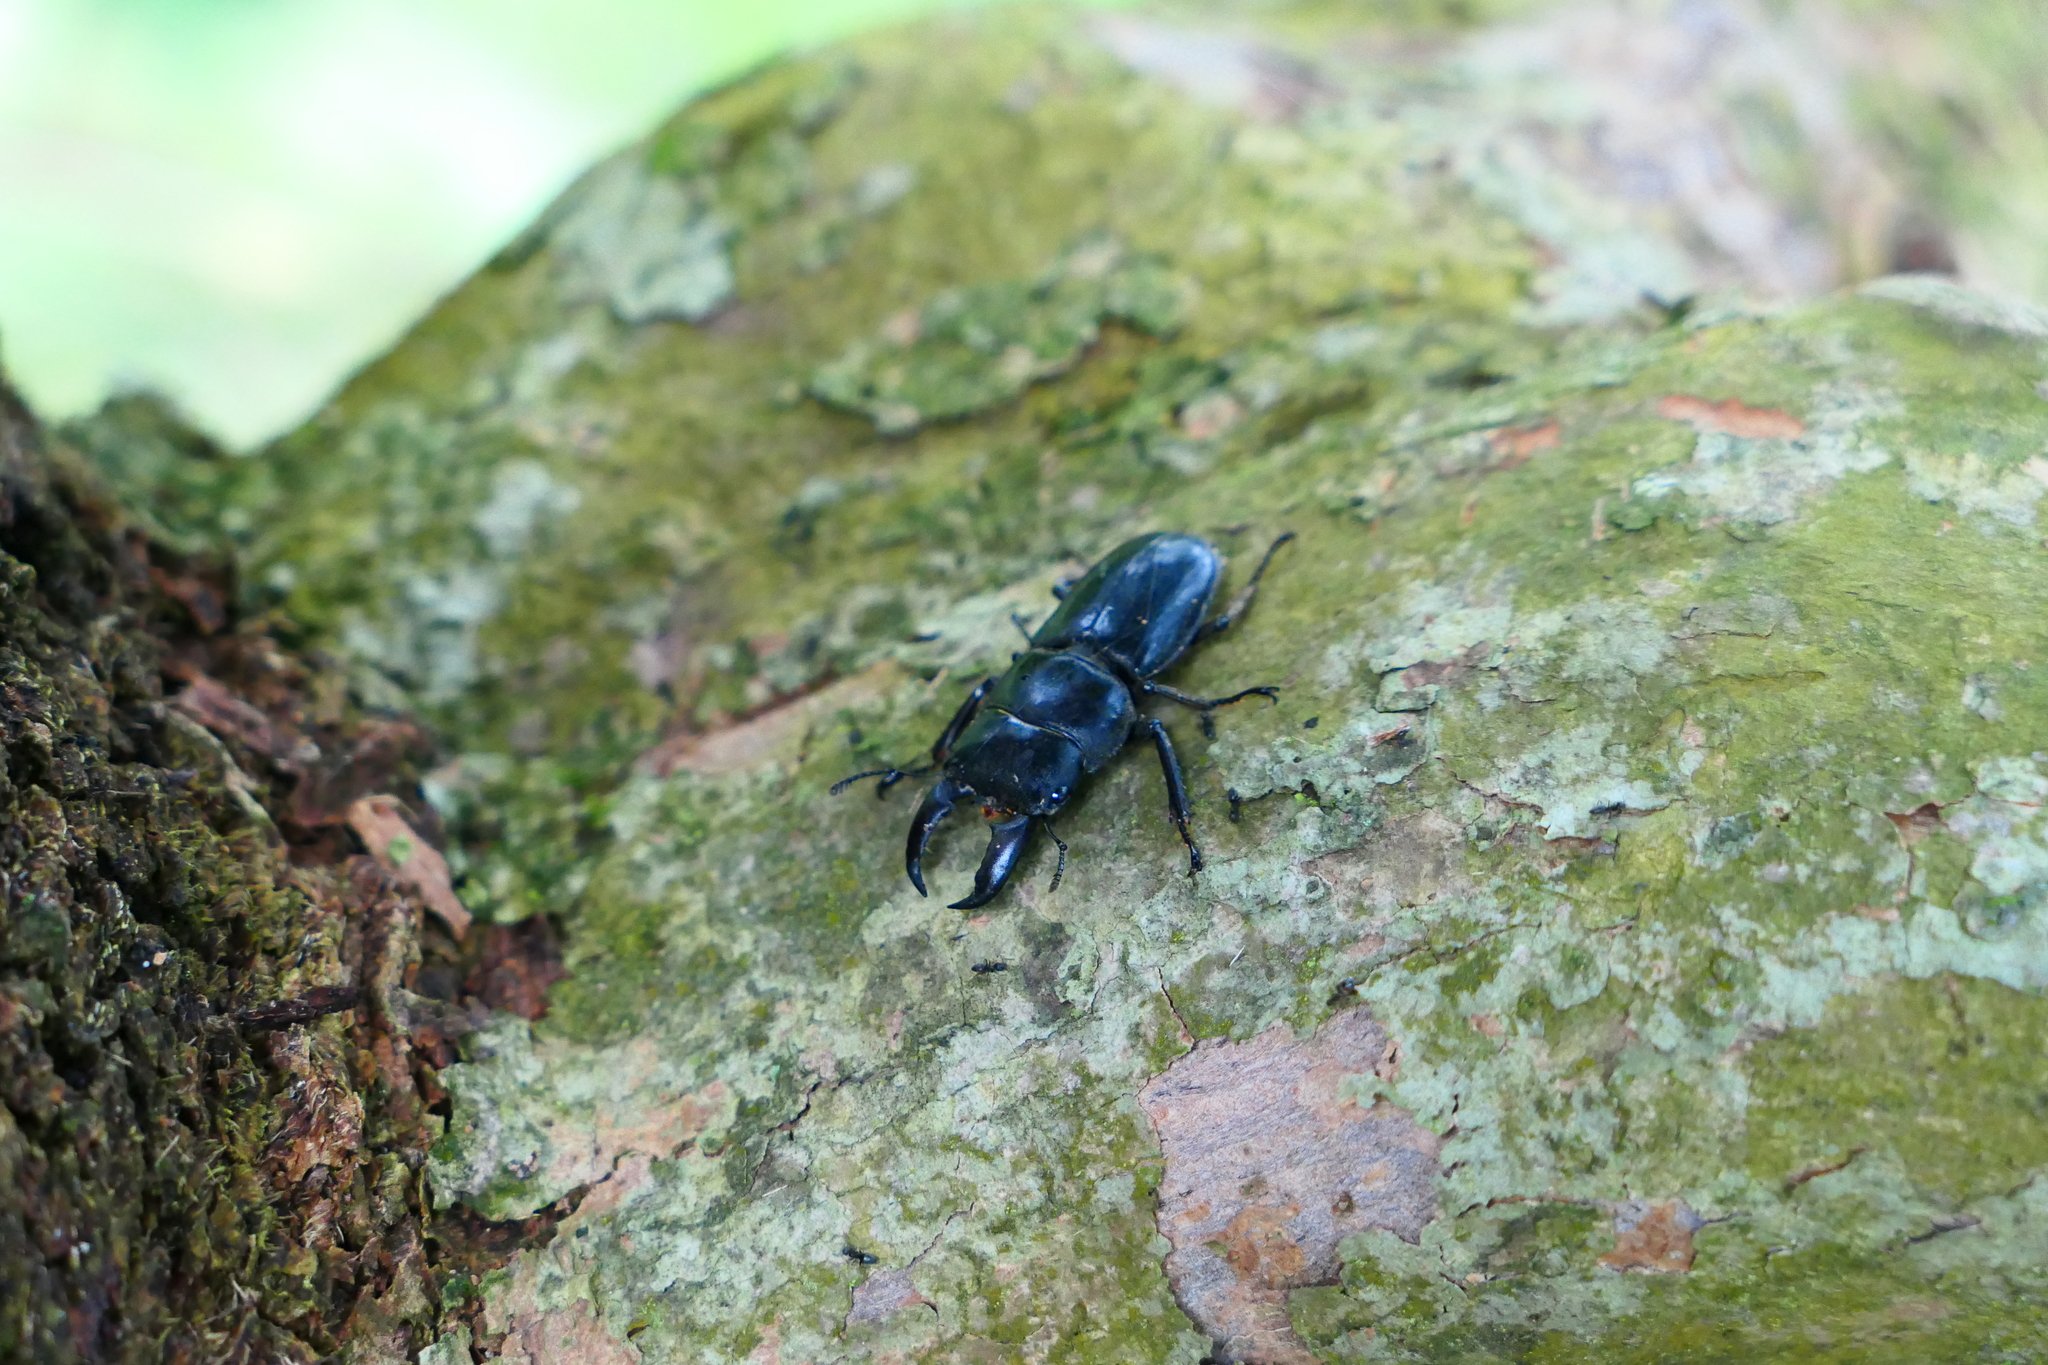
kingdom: Animalia
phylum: Arthropoda
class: Insecta
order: Coleoptera
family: Lucanidae
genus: Serrognathus
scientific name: Serrognathus titanus
